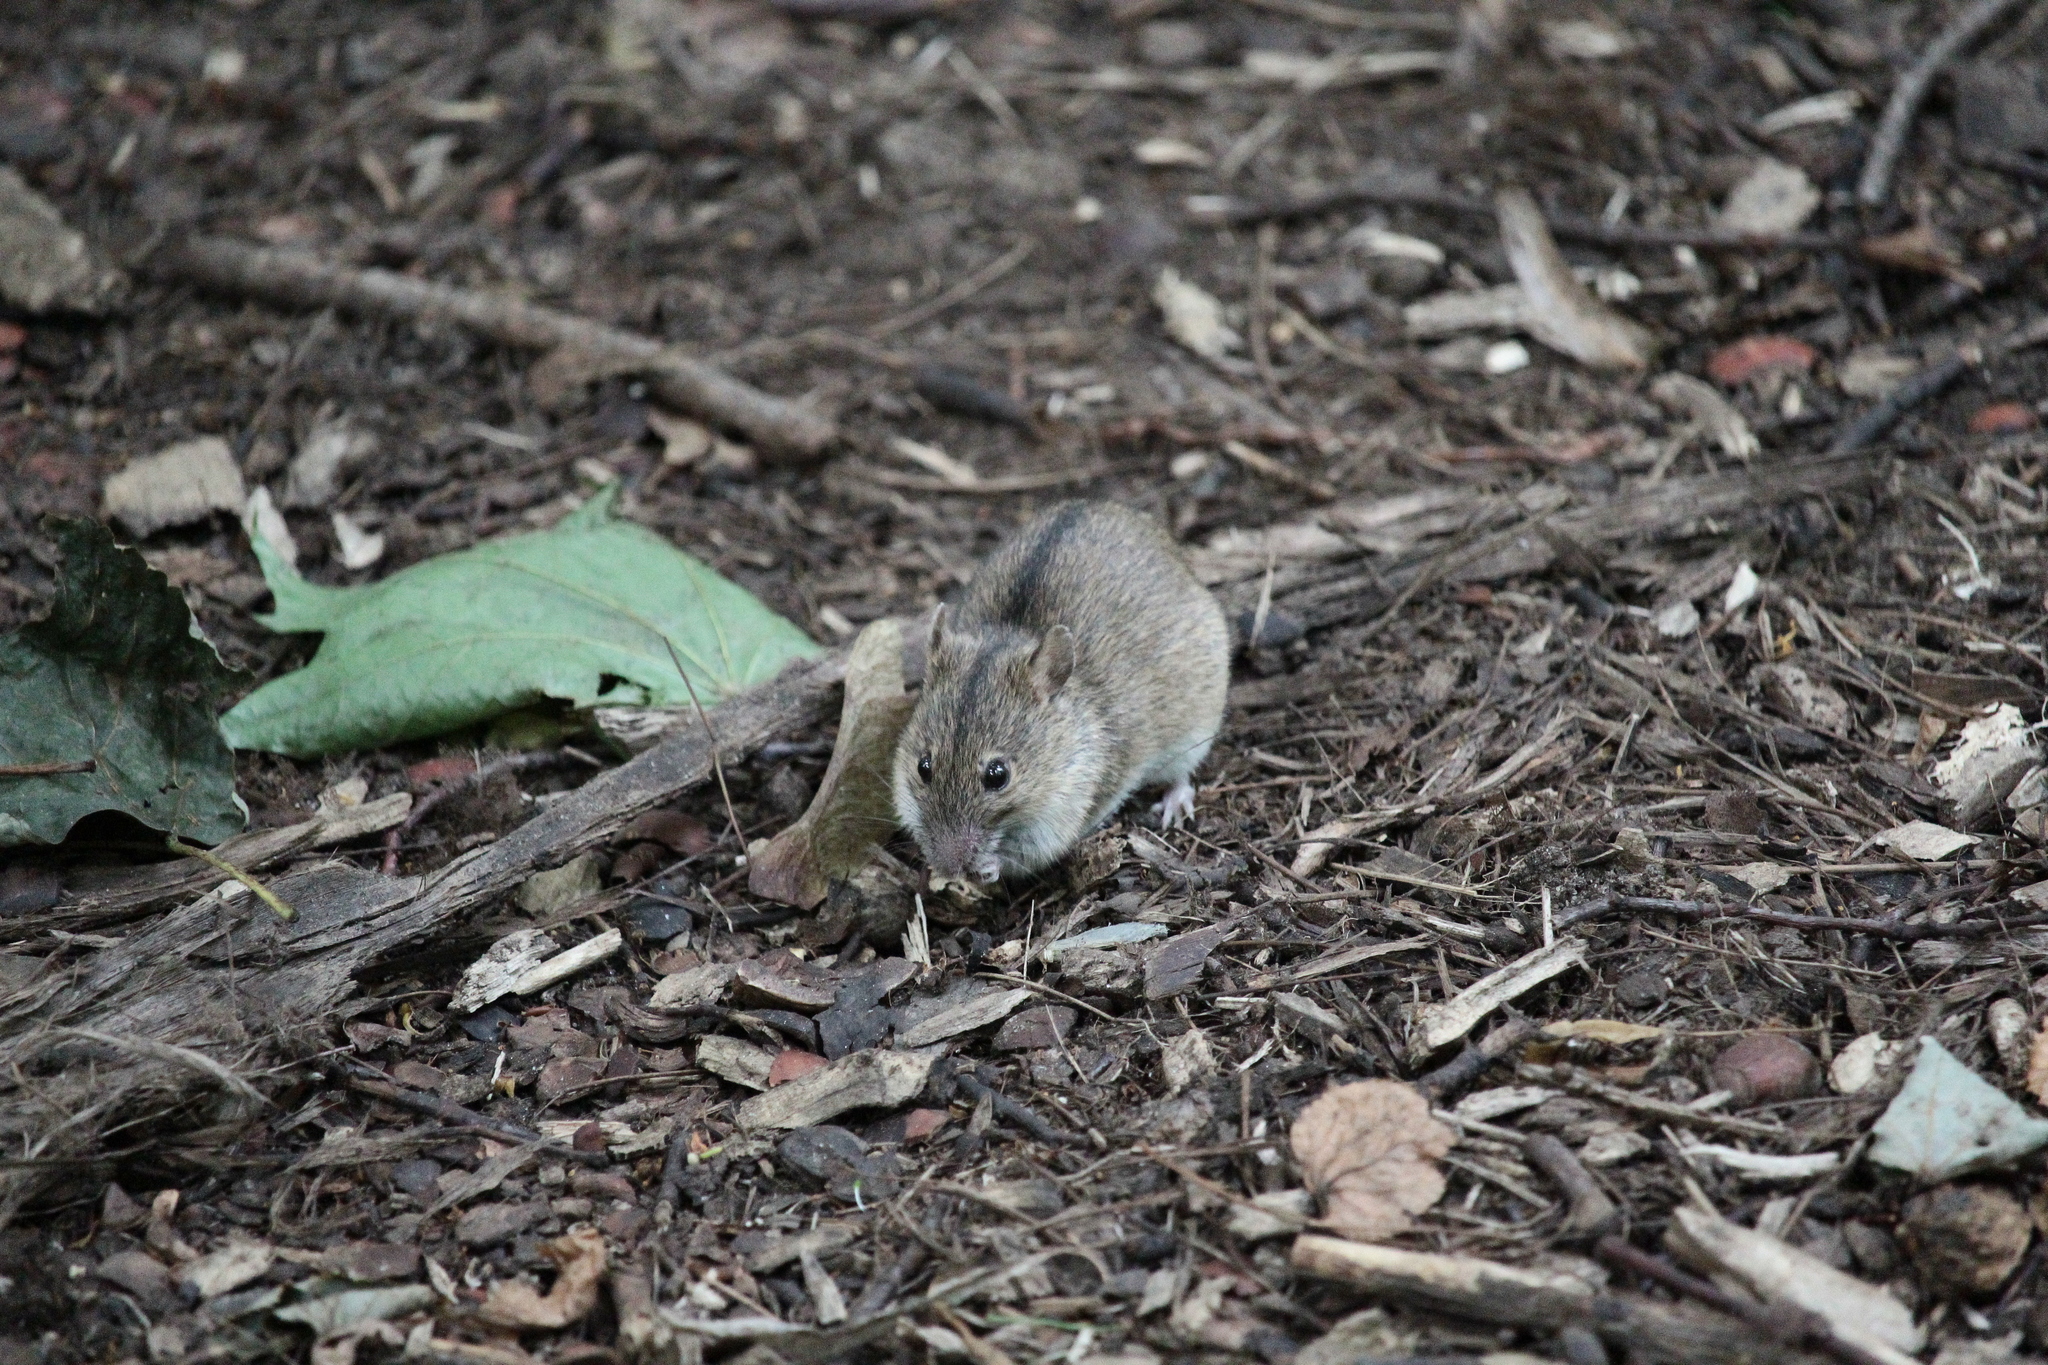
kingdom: Animalia
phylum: Chordata
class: Mammalia
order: Rodentia
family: Muridae
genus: Apodemus
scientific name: Apodemus agrarius
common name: Striped field mouse
